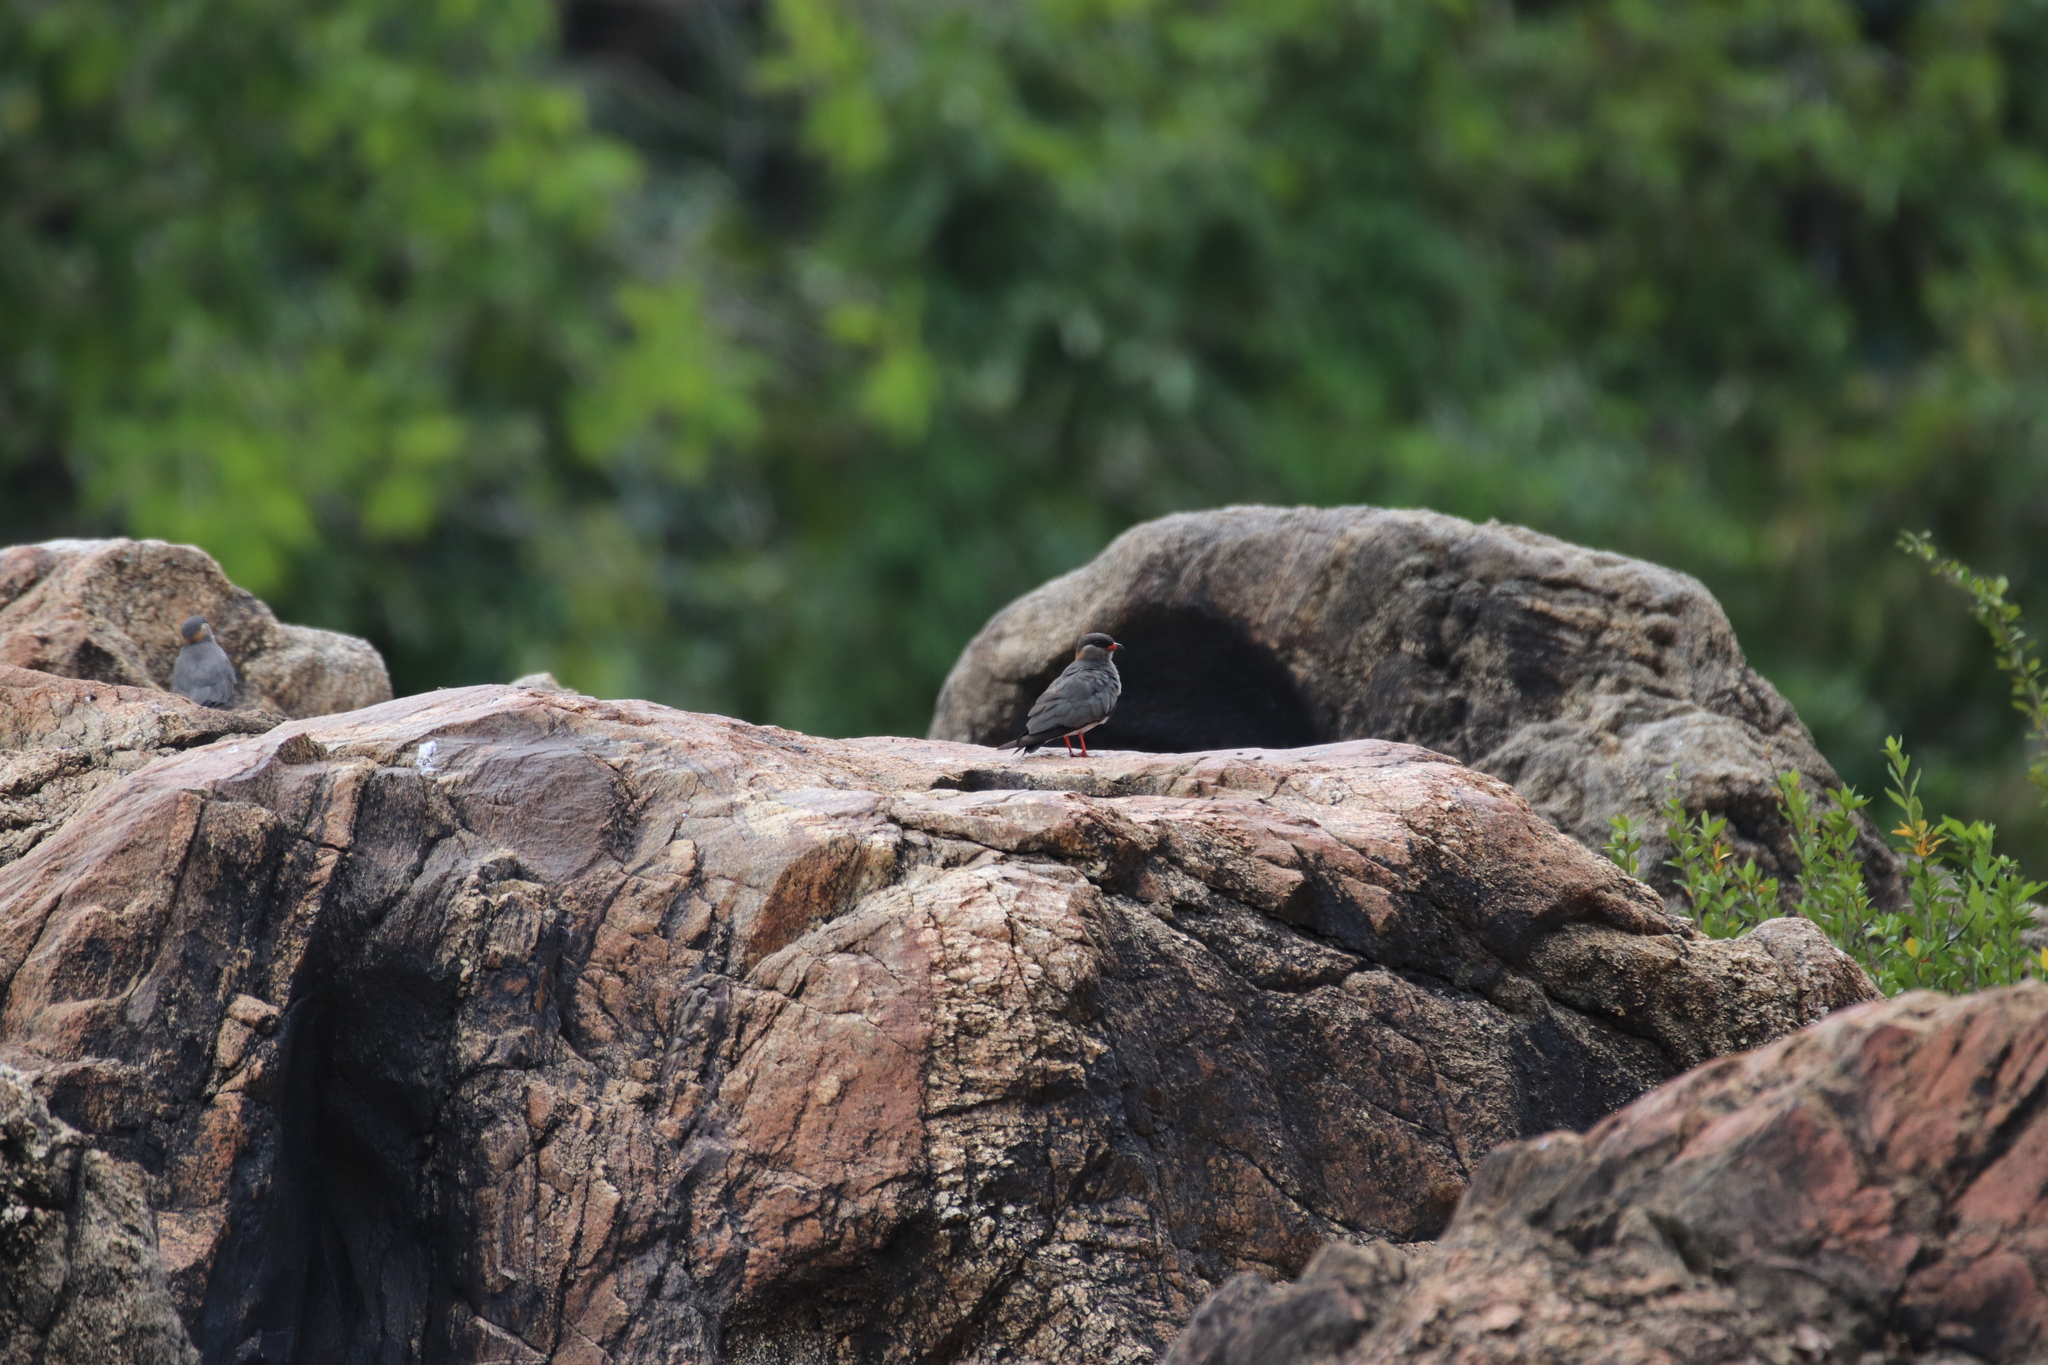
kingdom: Animalia
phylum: Chordata
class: Aves
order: Charadriiformes
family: Glareolidae
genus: Glareola
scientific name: Glareola nuchalis
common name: Rock pratincole
